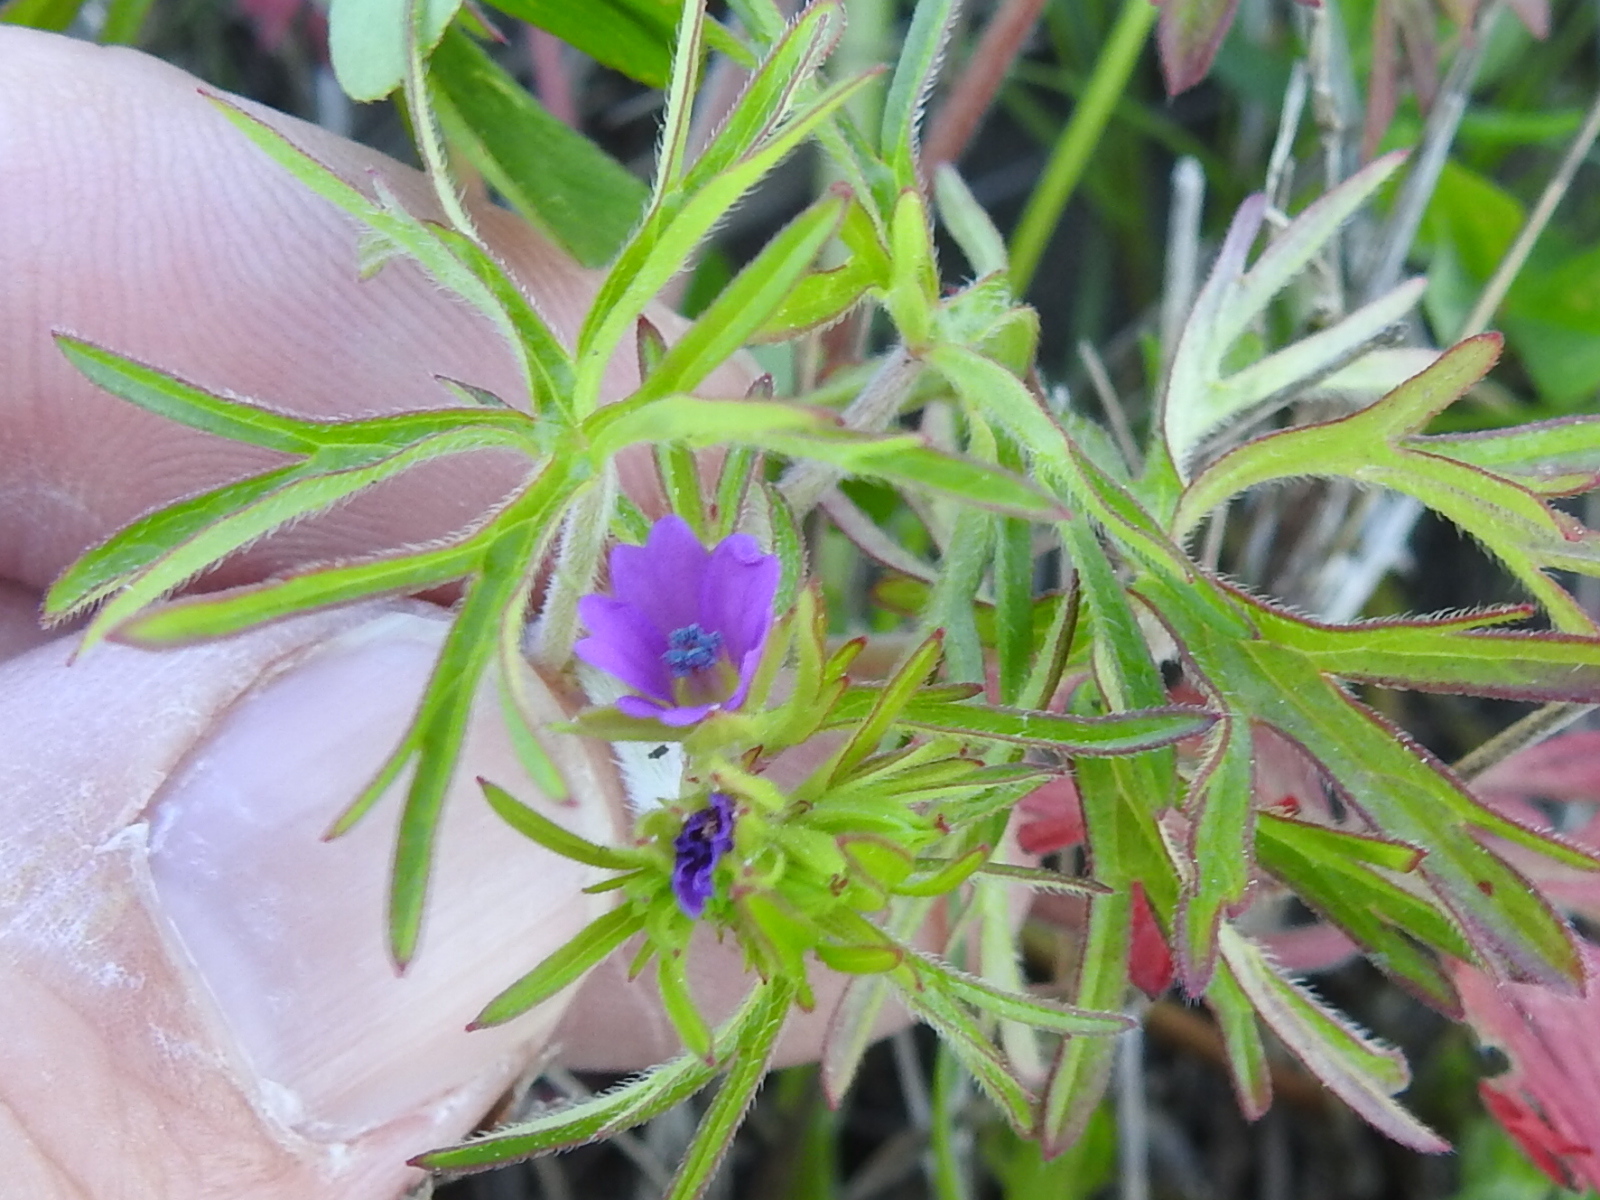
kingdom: Plantae
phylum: Tracheophyta
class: Magnoliopsida
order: Geraniales
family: Geraniaceae
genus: Geranium
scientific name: Geranium dissectum
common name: Cut-leaved crane's-bill
